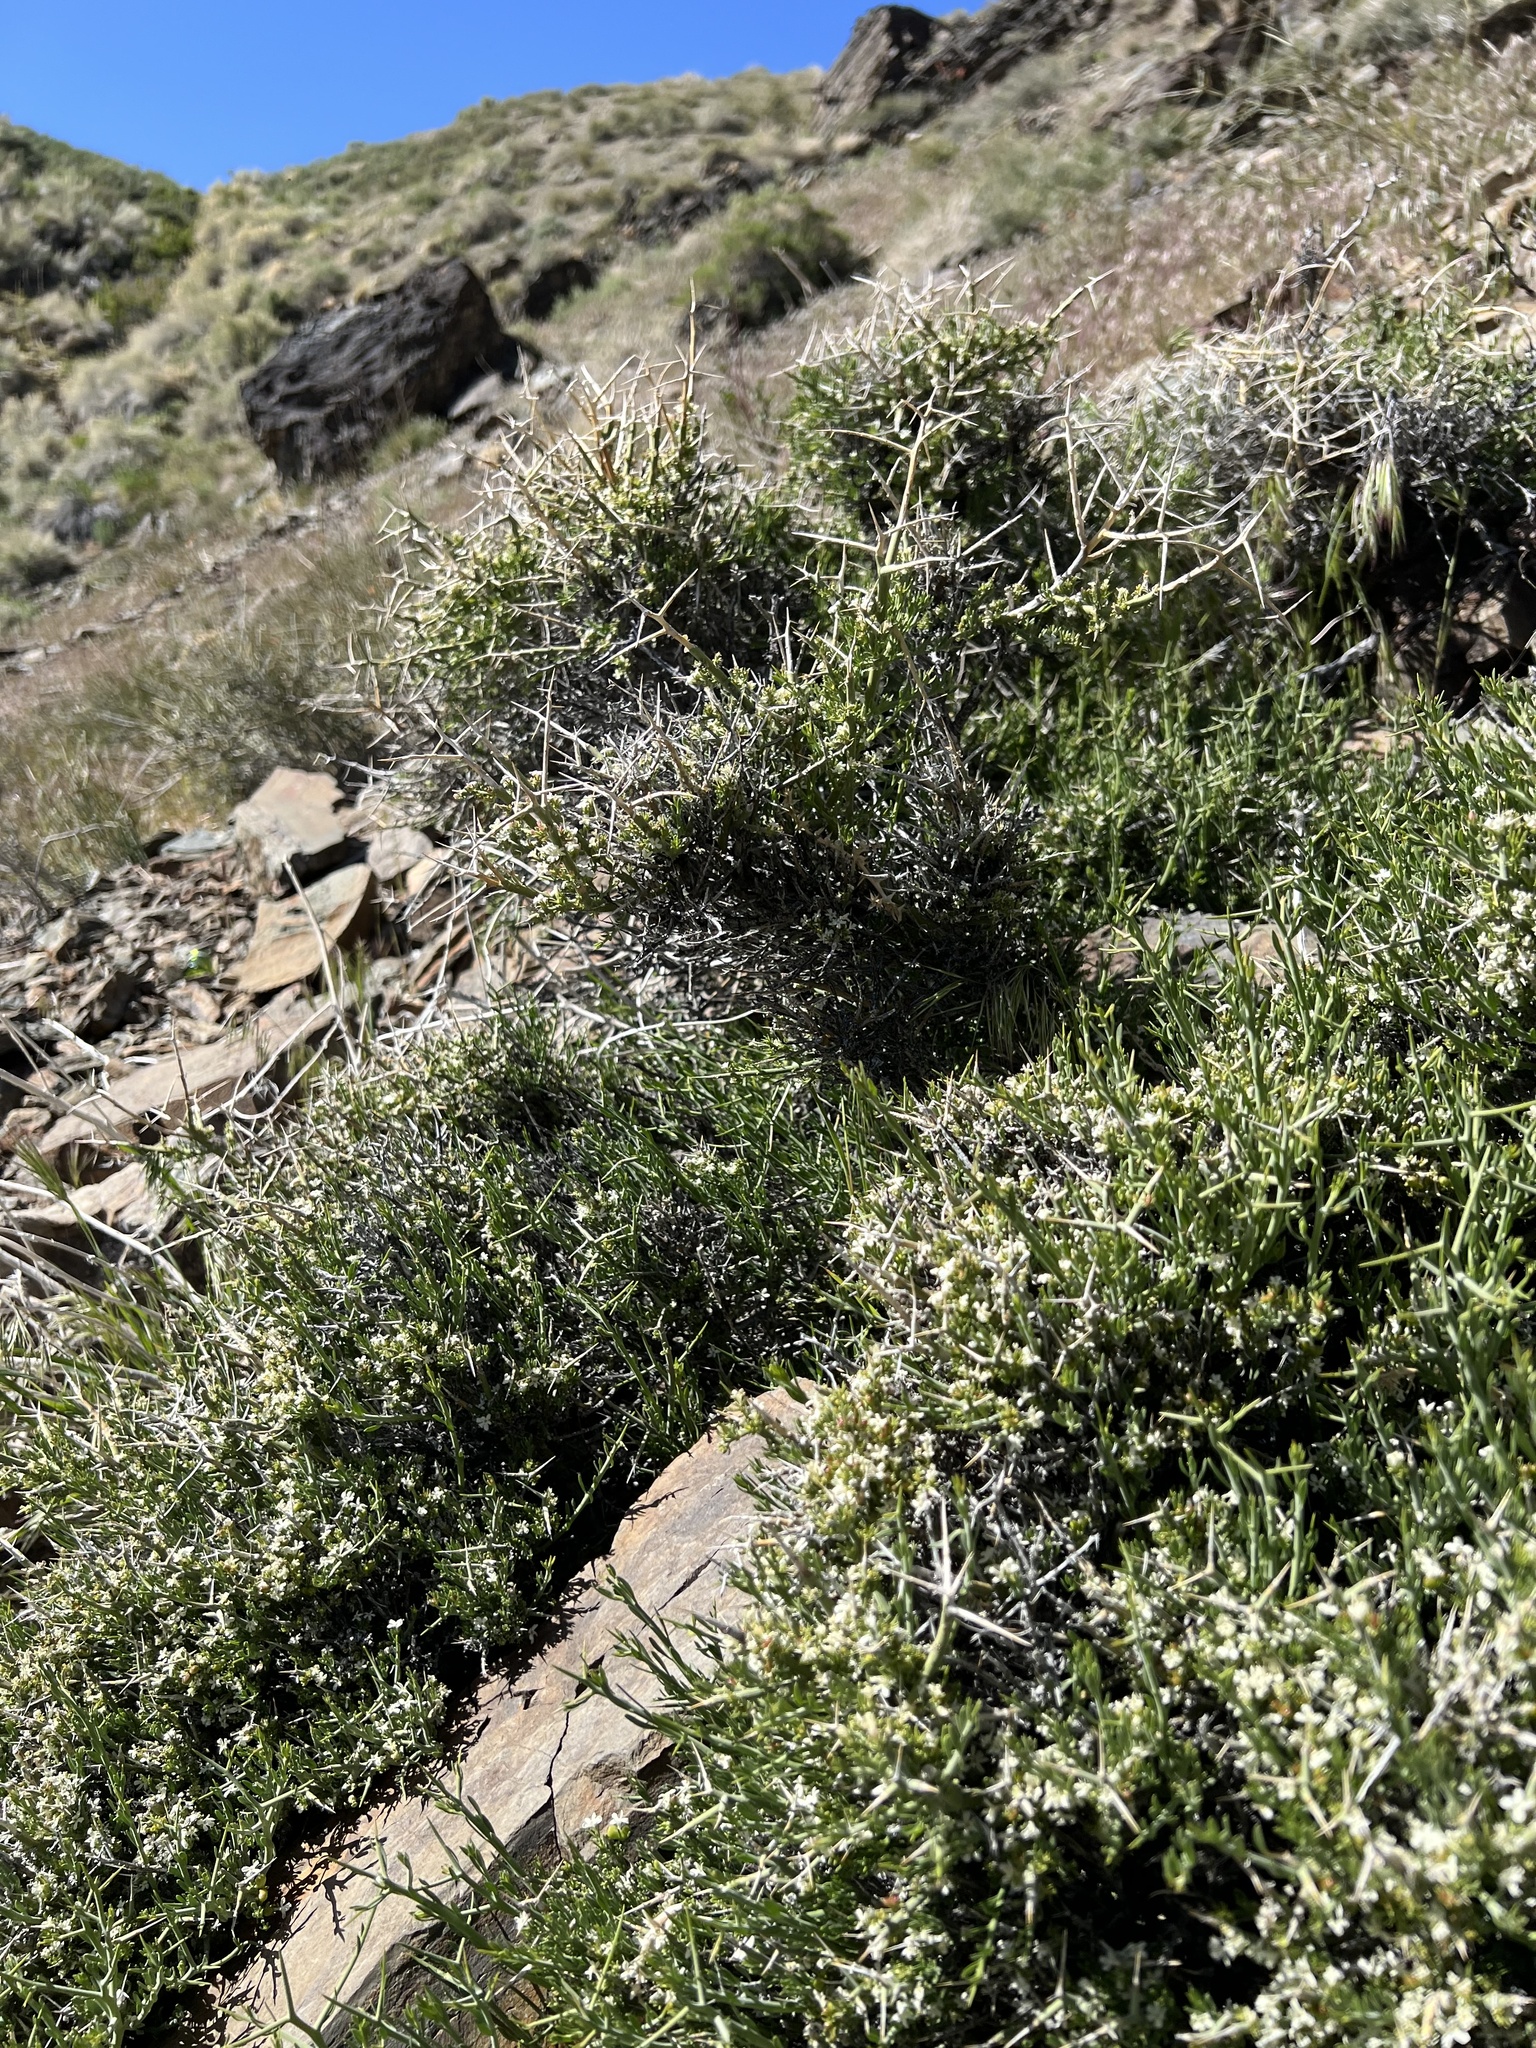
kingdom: Plantae
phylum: Tracheophyta
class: Magnoliopsida
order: Lamiales
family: Oleaceae
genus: Menodora
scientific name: Menodora spinescens
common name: Spiny menodora
